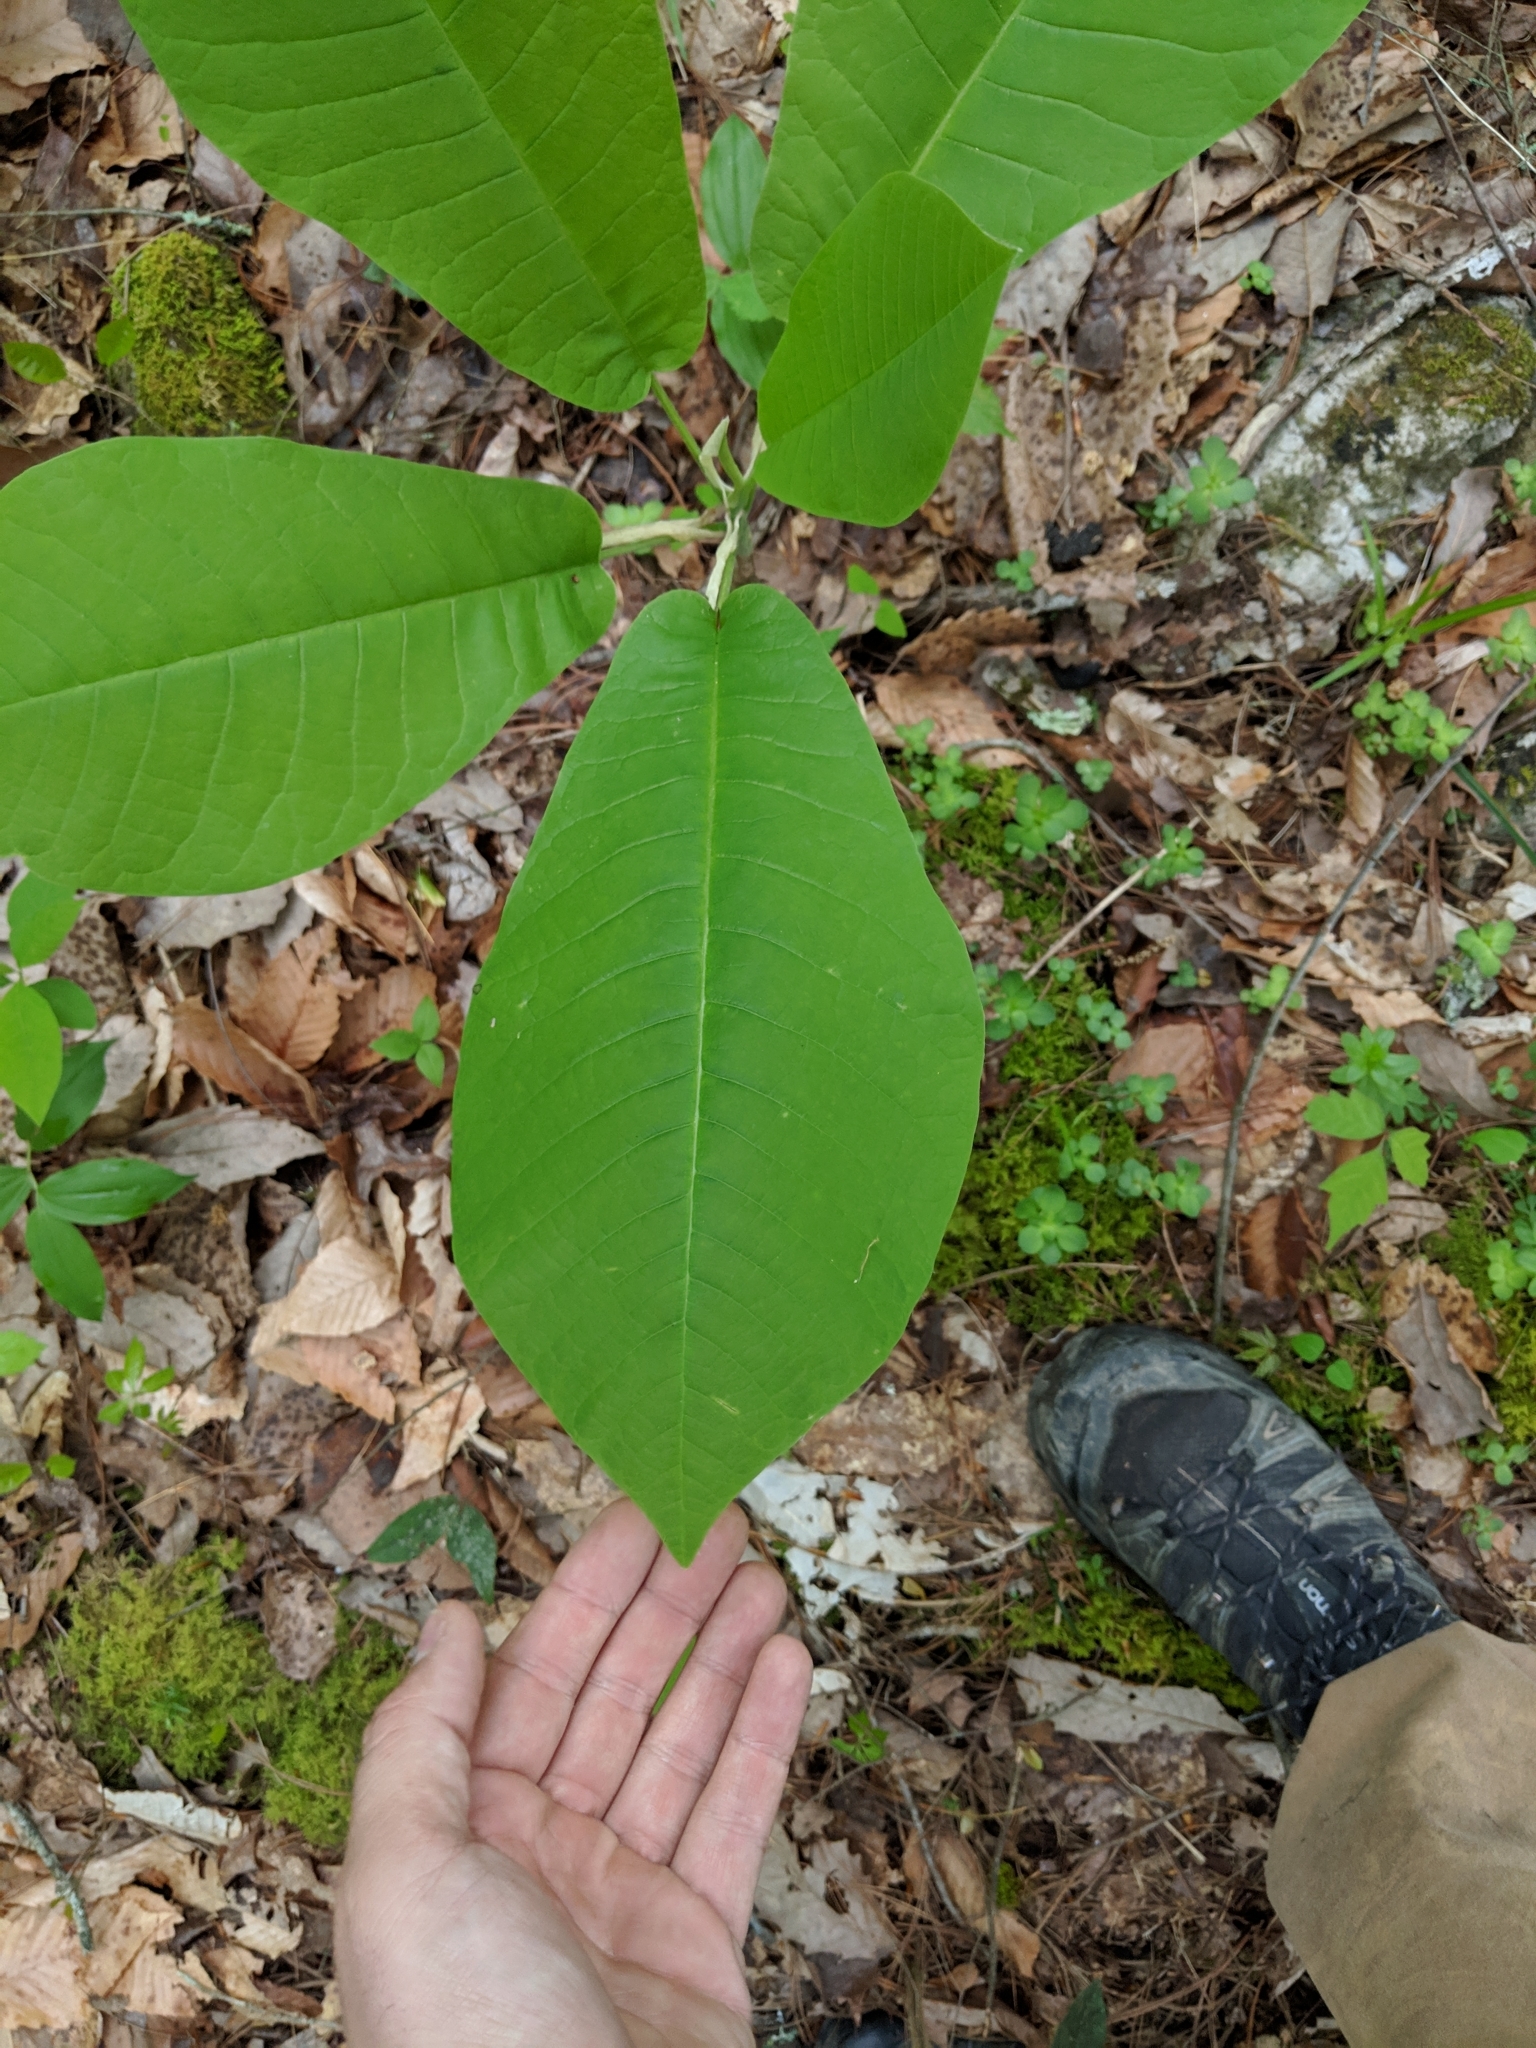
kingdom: Plantae
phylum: Tracheophyta
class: Magnoliopsida
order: Magnoliales
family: Magnoliaceae
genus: Magnolia
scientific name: Magnolia macrophylla
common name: Big-leaf magnolia
